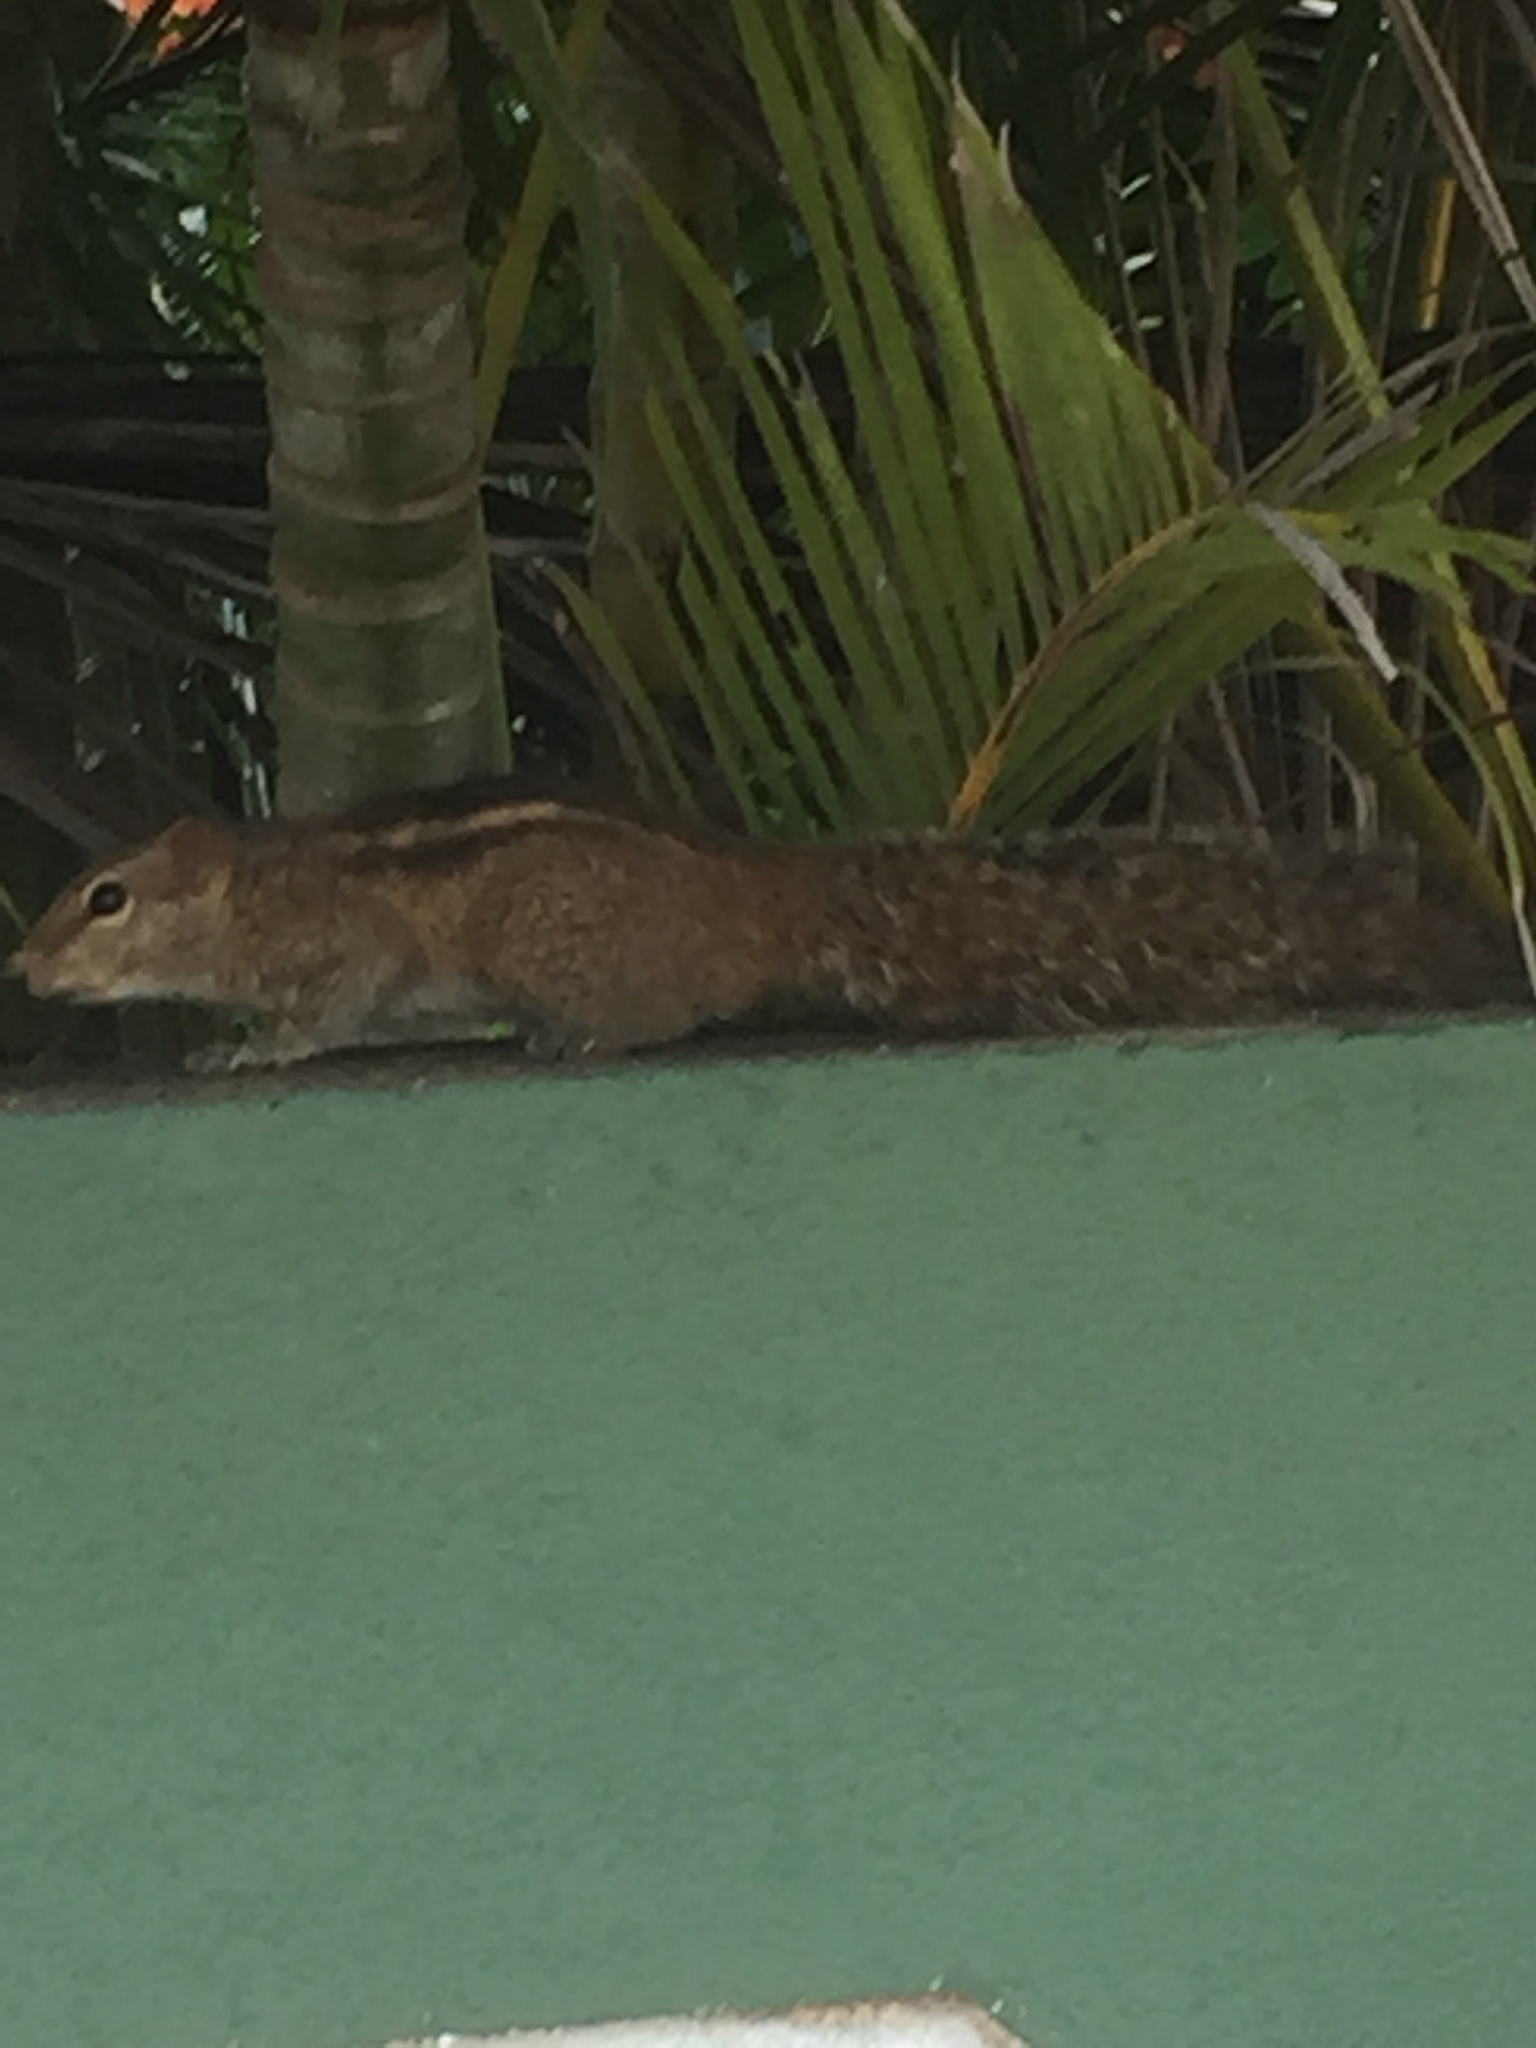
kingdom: Animalia
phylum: Chordata
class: Mammalia
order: Rodentia
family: Sciuridae
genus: Funambulus
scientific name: Funambulus palmarum
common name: Indian palm squirrel
